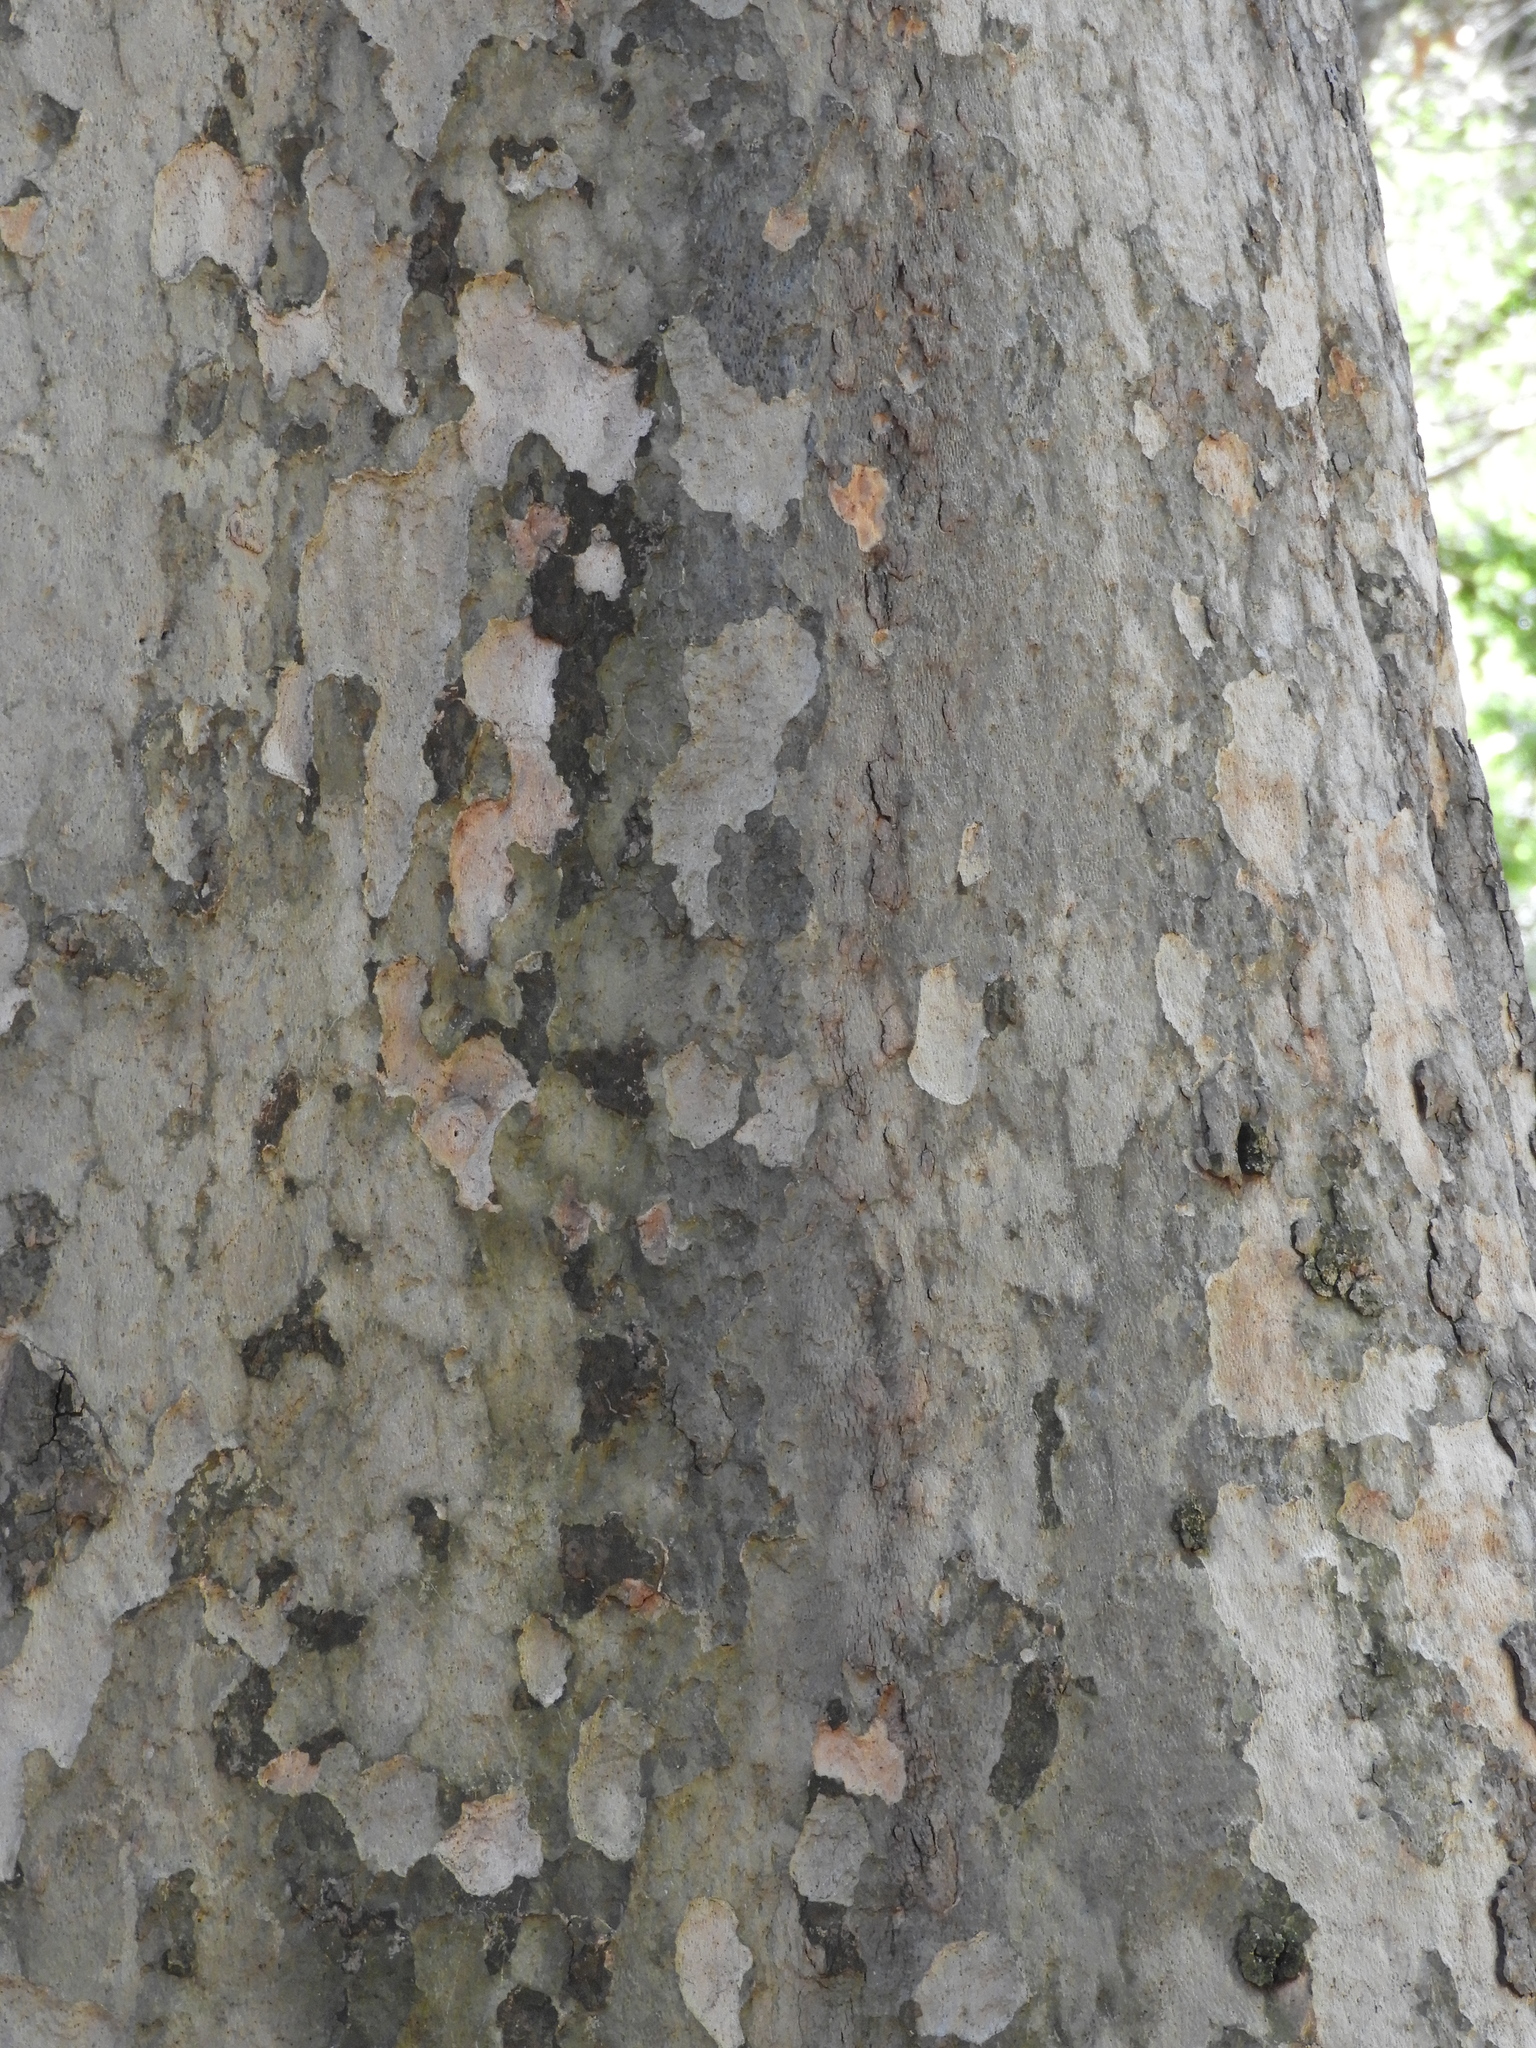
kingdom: Plantae
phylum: Tracheophyta
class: Magnoliopsida
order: Proteales
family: Platanaceae
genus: Platanus
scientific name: Platanus racemosa
